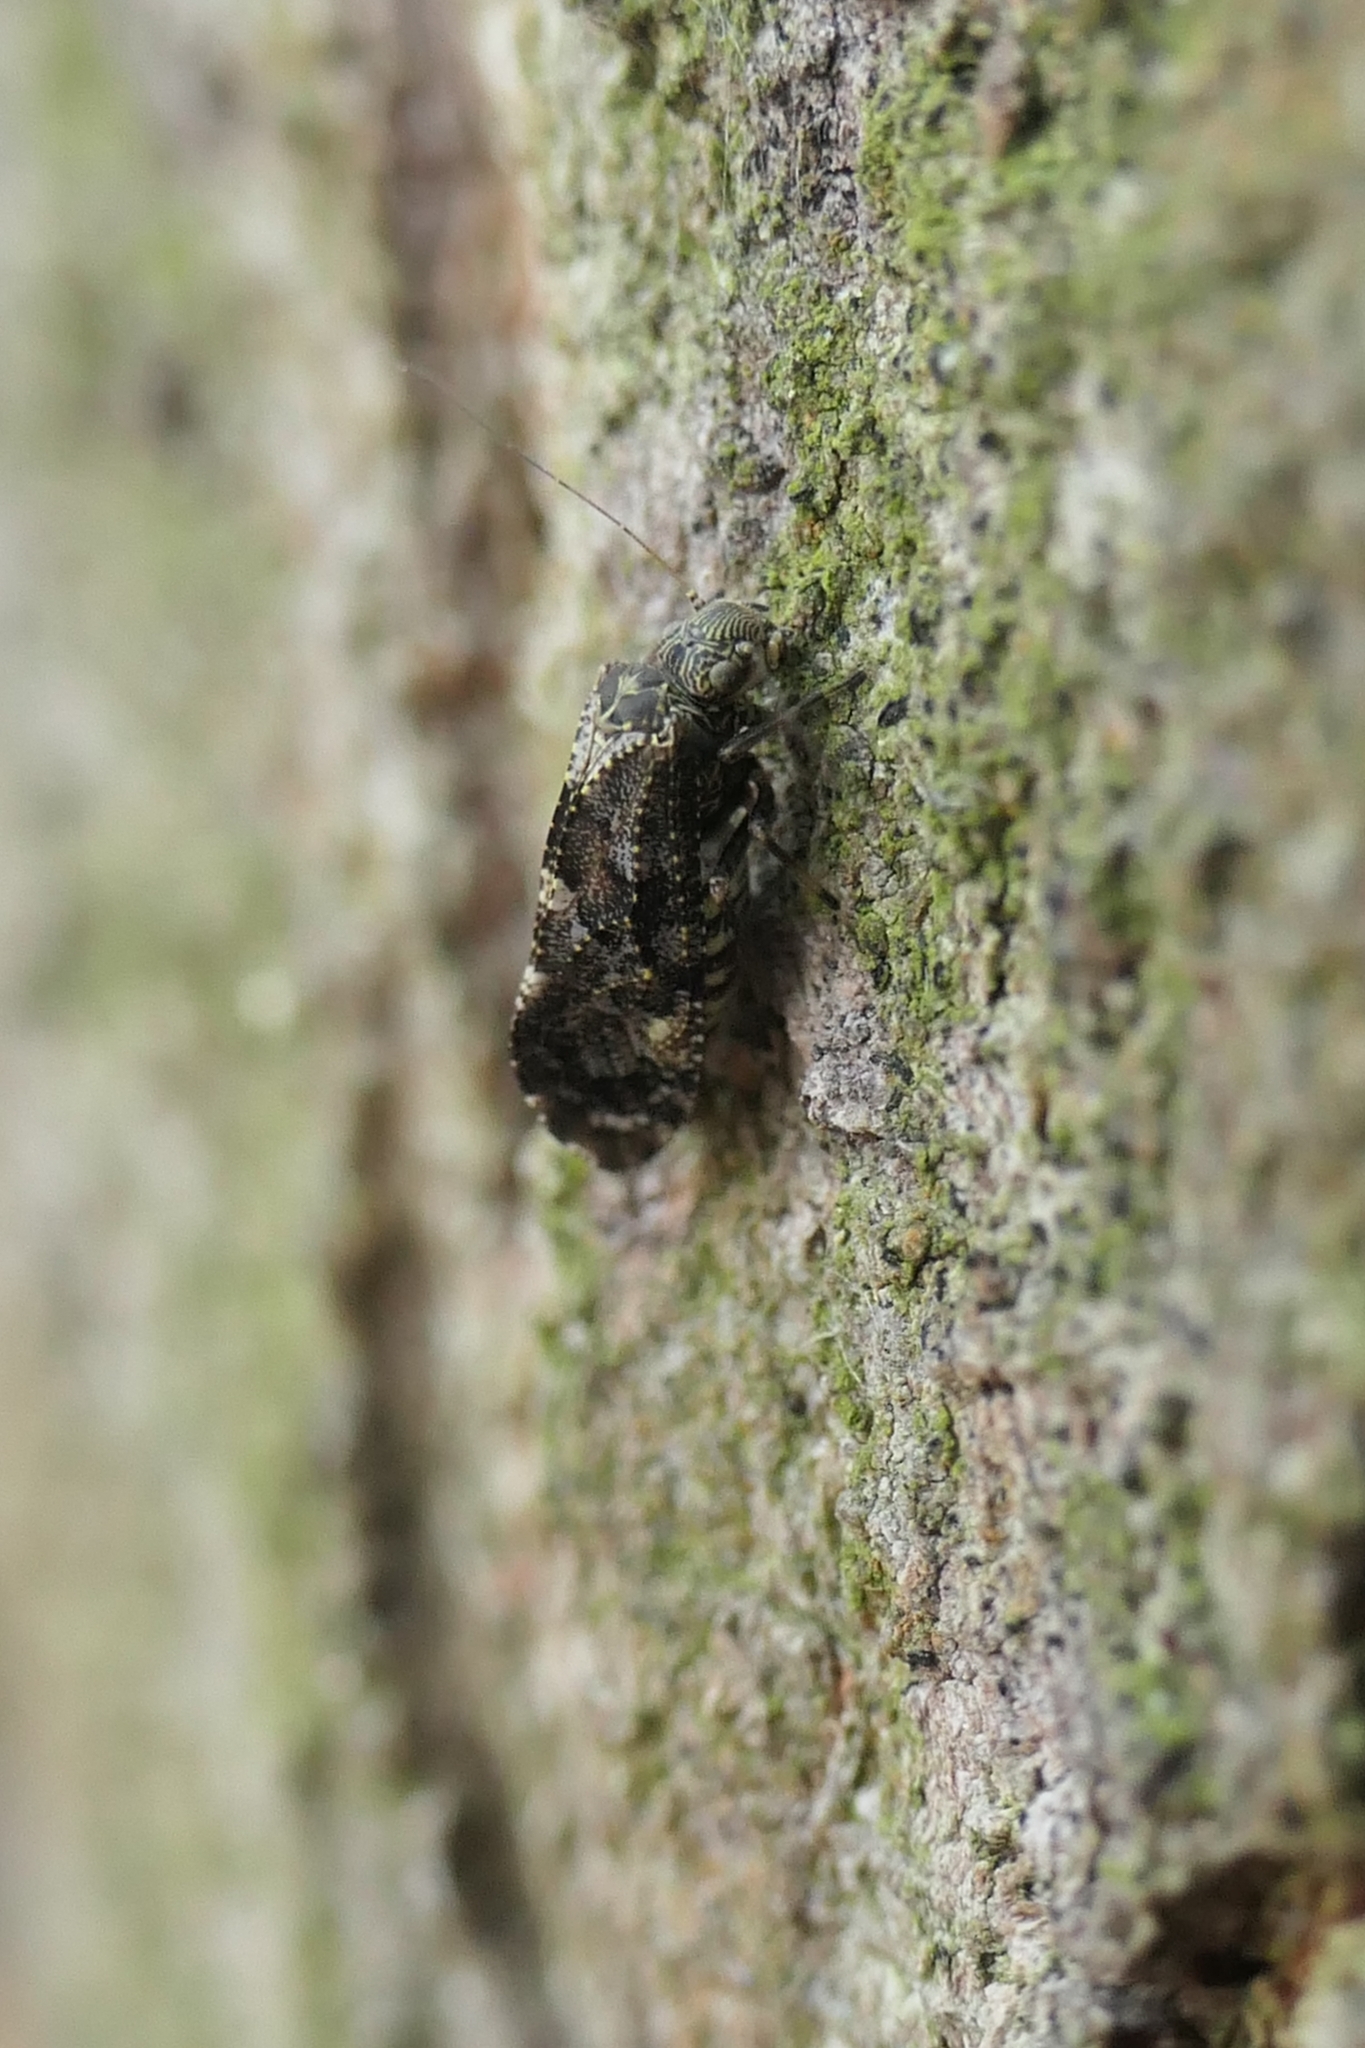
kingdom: Animalia
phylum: Arthropoda
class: Insecta
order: Psocodea
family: Myopsocidae
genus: Nimbopsocus
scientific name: Nimbopsocus australis
